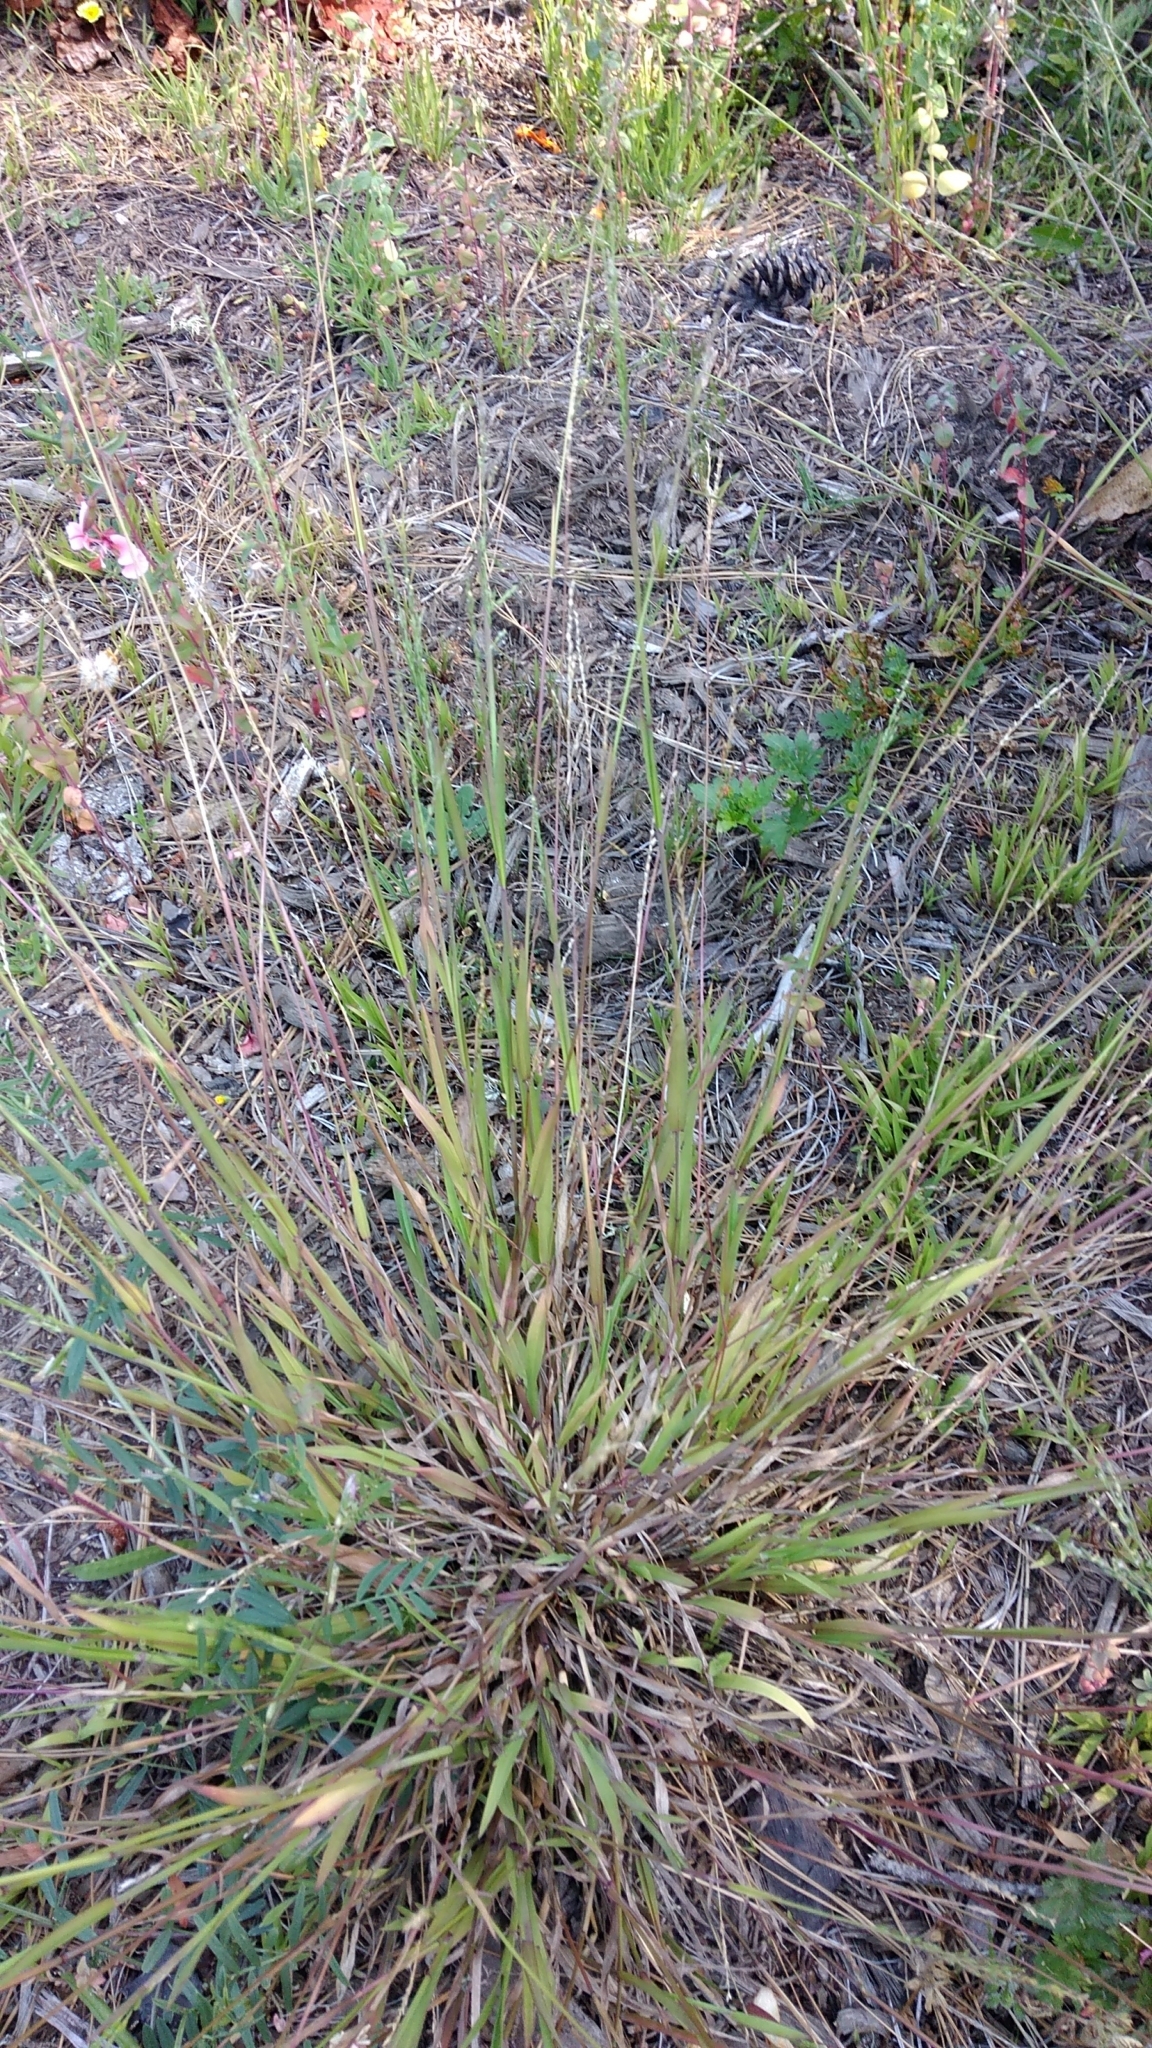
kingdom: Plantae
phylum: Tracheophyta
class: Liliopsida
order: Poales
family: Poaceae
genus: Ehrharta
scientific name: Ehrharta erecta
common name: Panic veldtgrass
